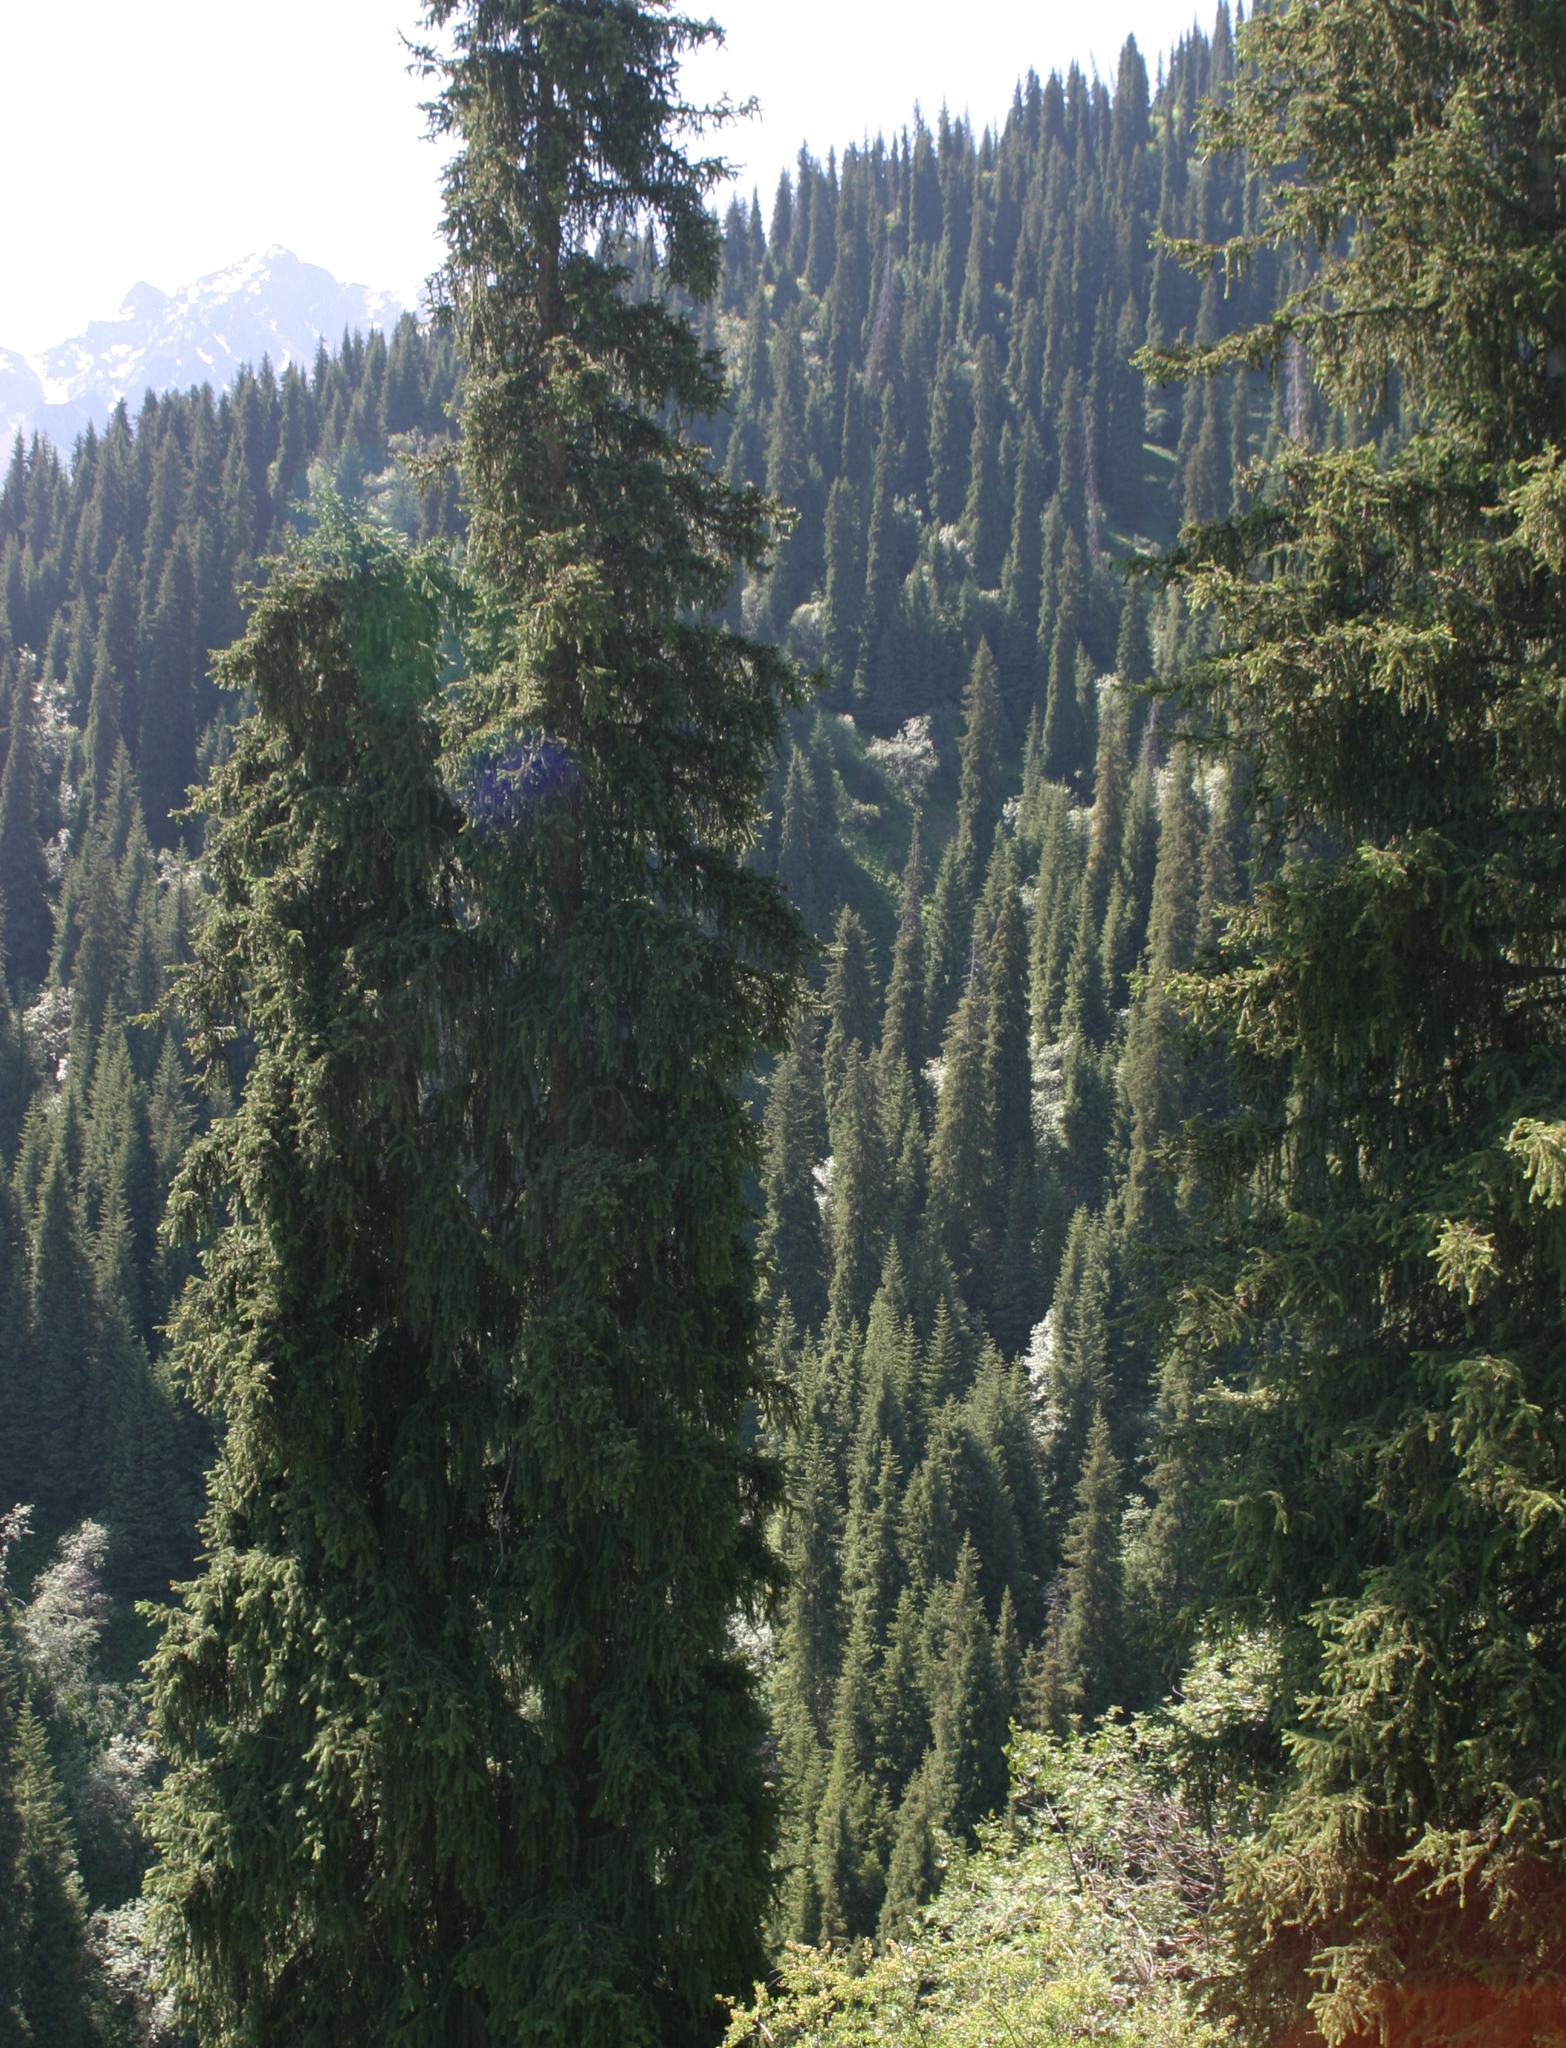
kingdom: Plantae
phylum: Tracheophyta
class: Pinopsida
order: Pinales
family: Pinaceae
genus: Picea
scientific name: Picea schrenkiana
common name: Asian spruce
